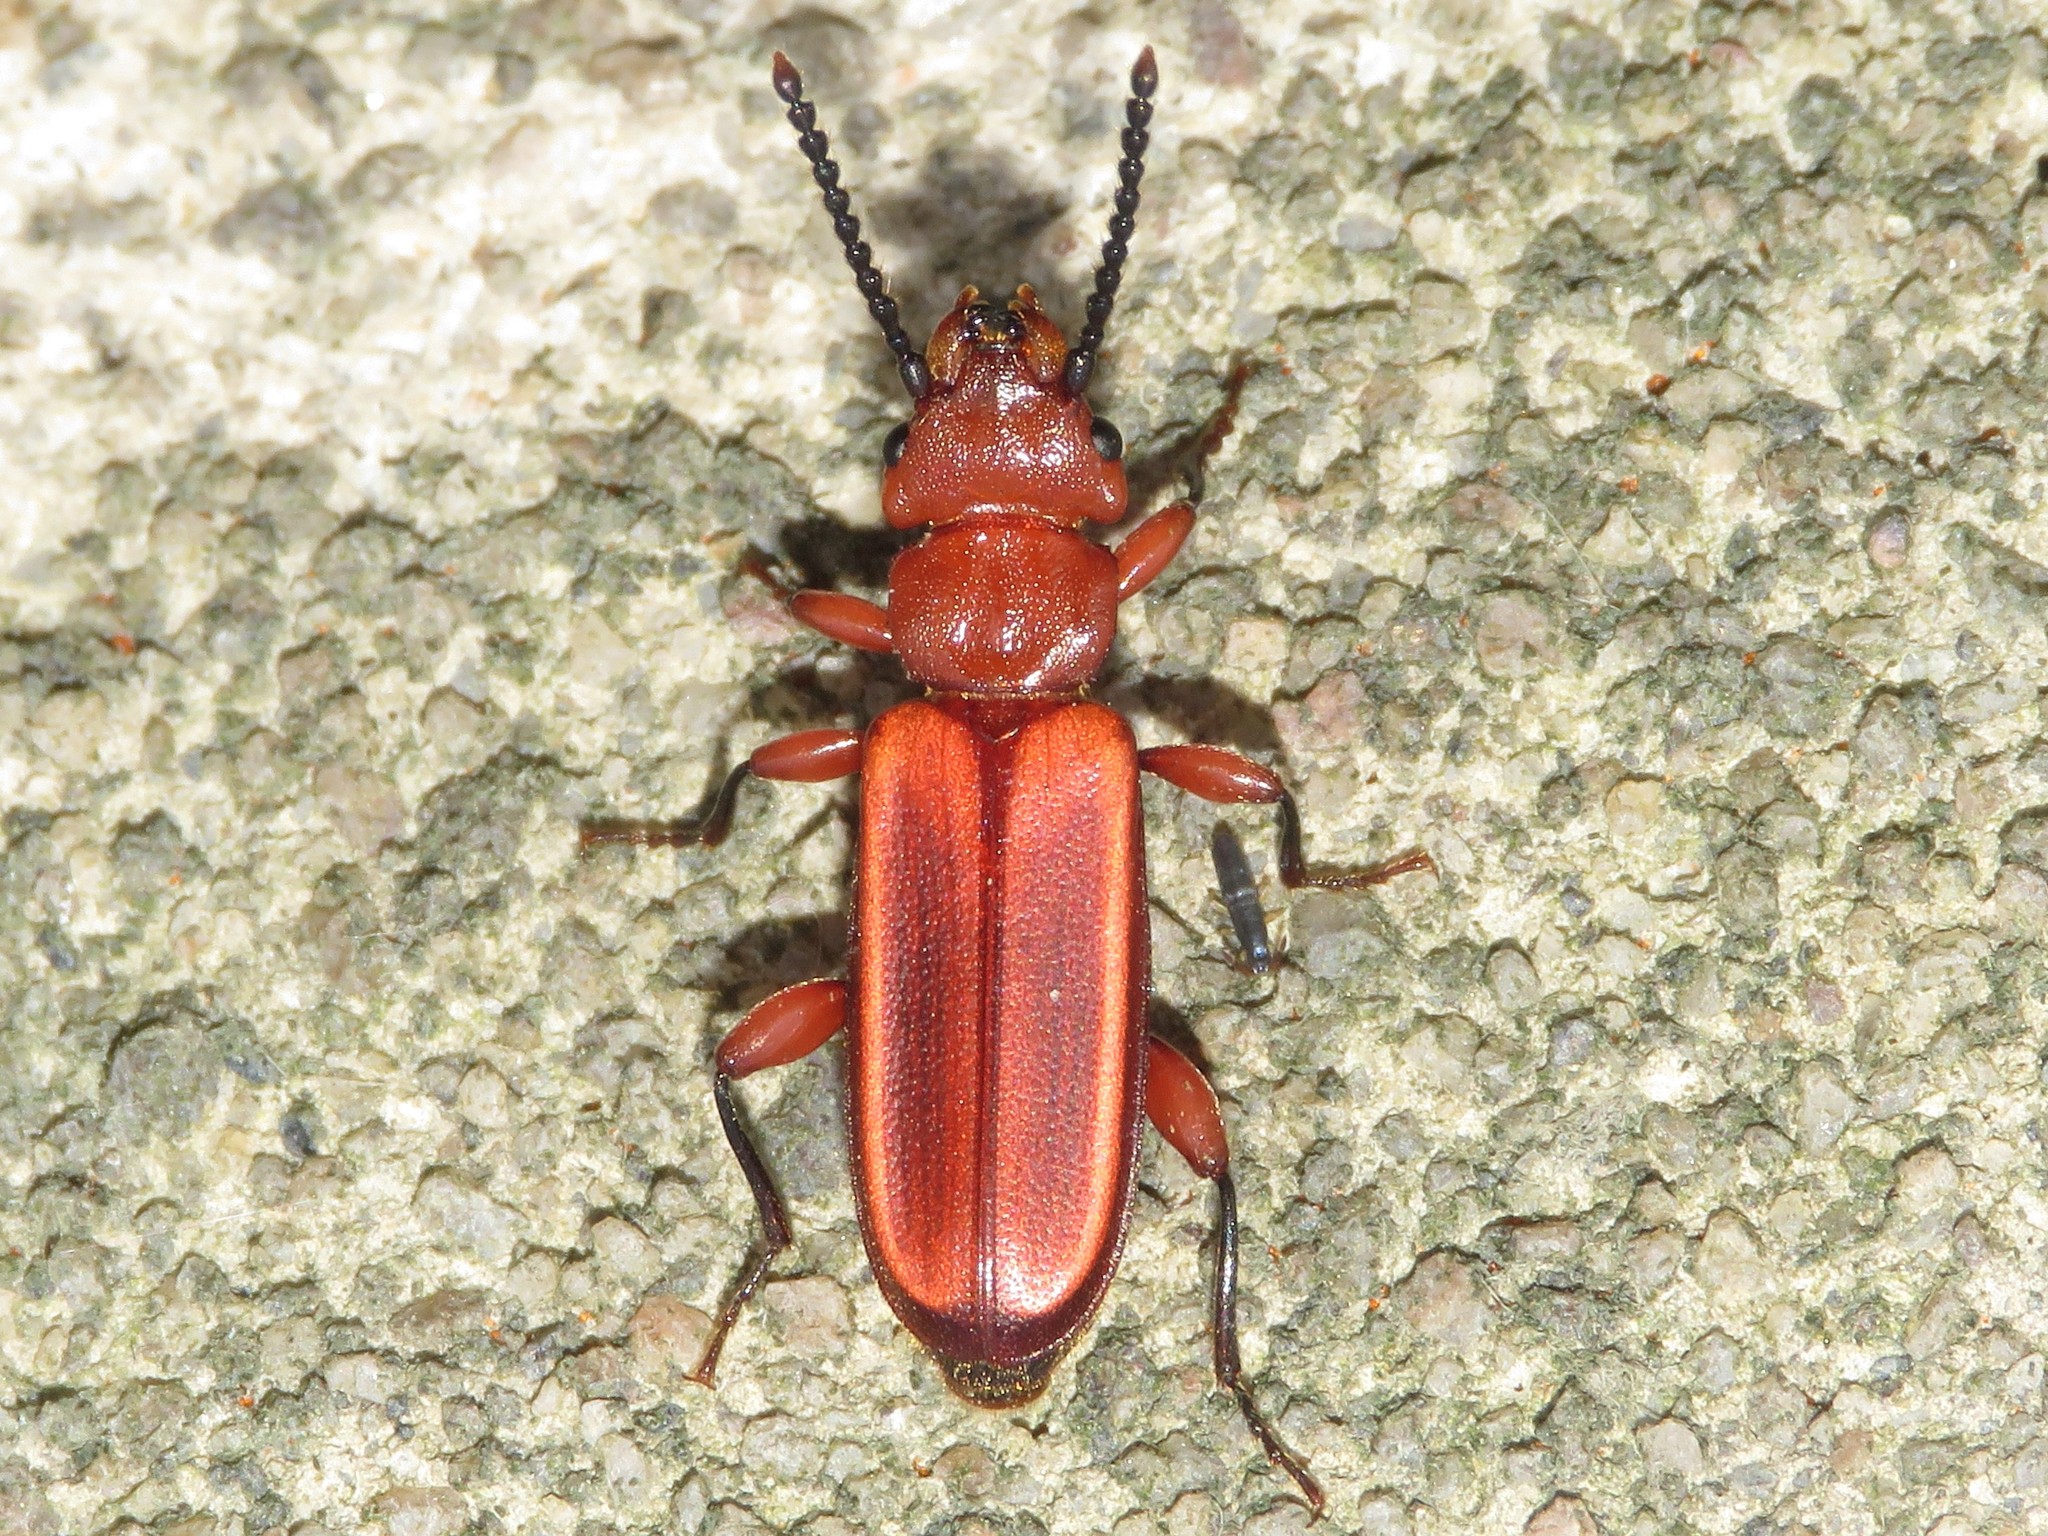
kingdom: Animalia
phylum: Arthropoda
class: Insecta
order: Coleoptera
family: Cucujidae
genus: Cucujus
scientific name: Cucujus clavipes
